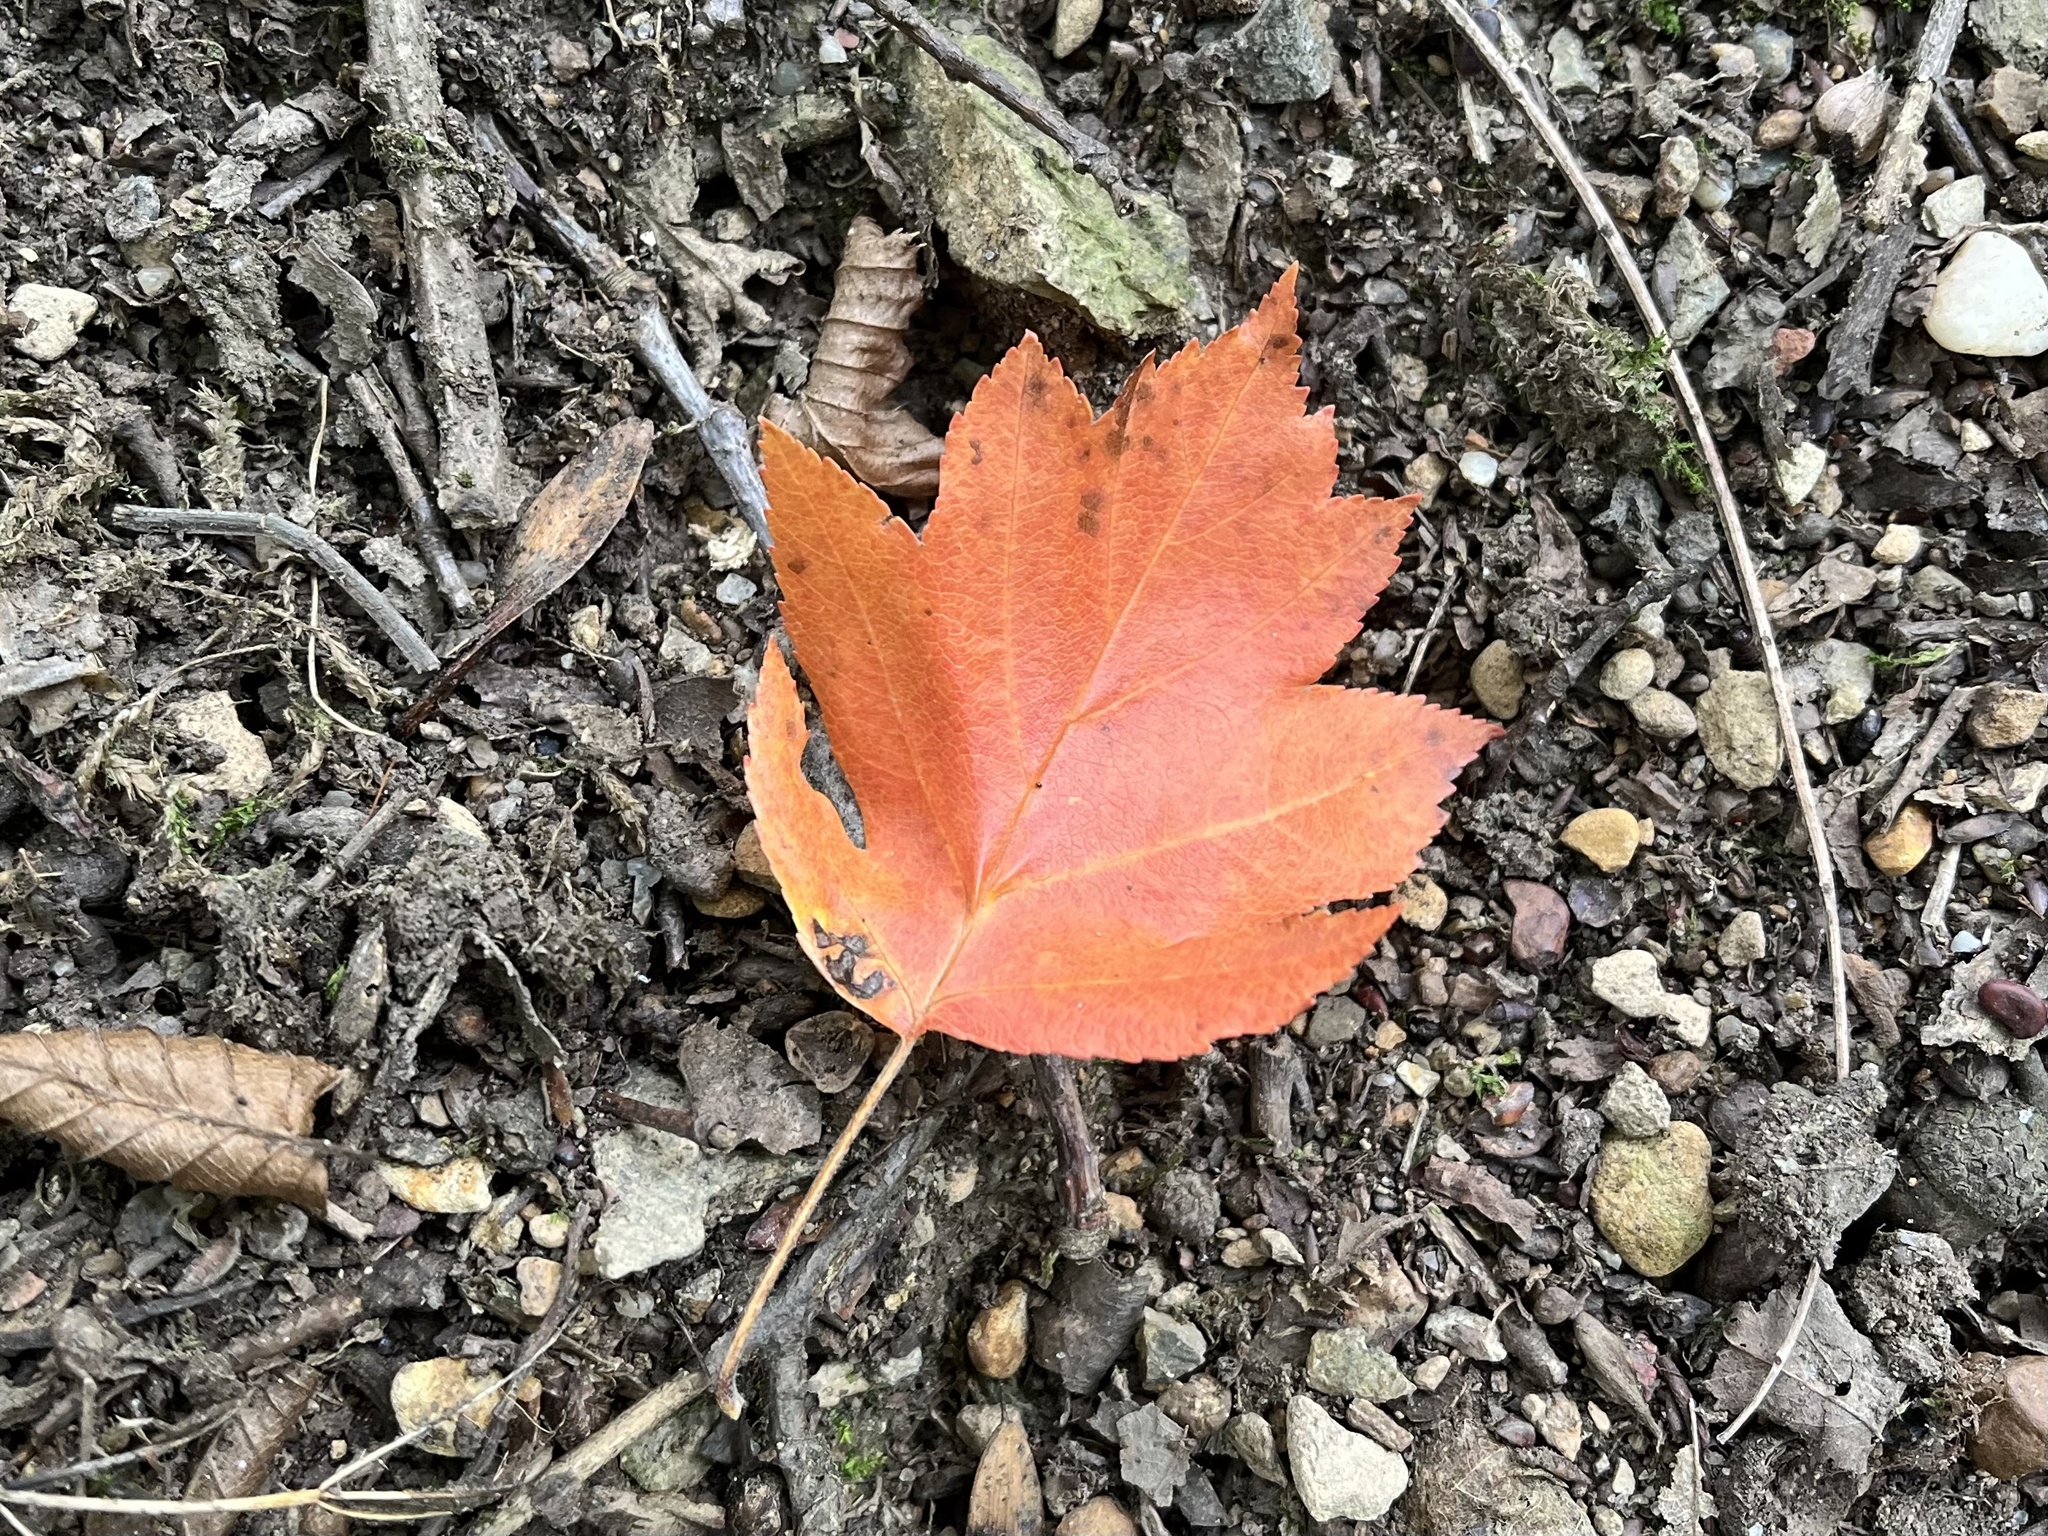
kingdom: Plantae
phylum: Tracheophyta
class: Magnoliopsida
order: Rosales
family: Rosaceae
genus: Torminalis
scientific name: Torminalis glaberrima
